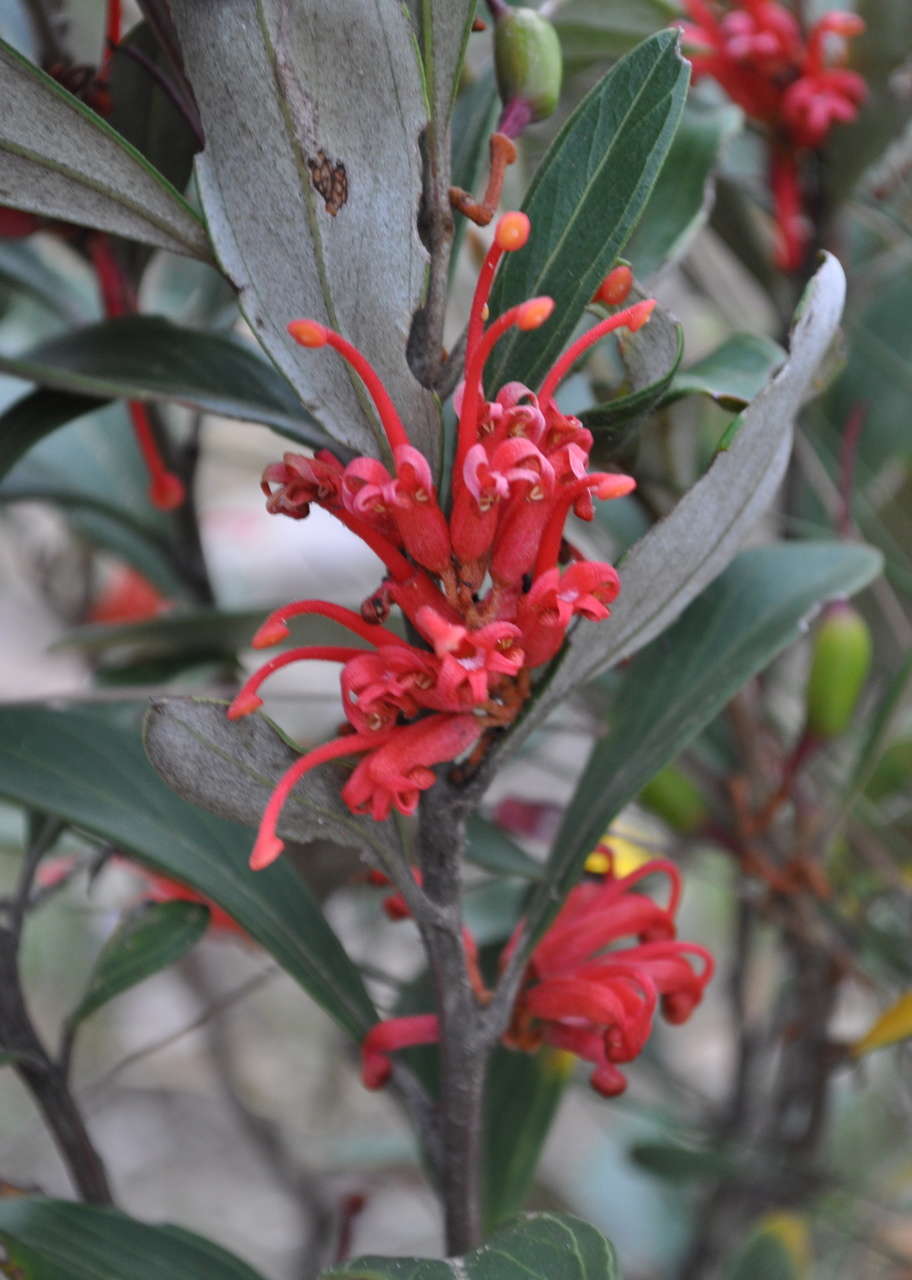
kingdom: Plantae
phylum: Tracheophyta
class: Magnoliopsida
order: Proteales
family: Proteaceae
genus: Grevillea
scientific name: Grevillea dimorpha
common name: Flame grevillea
